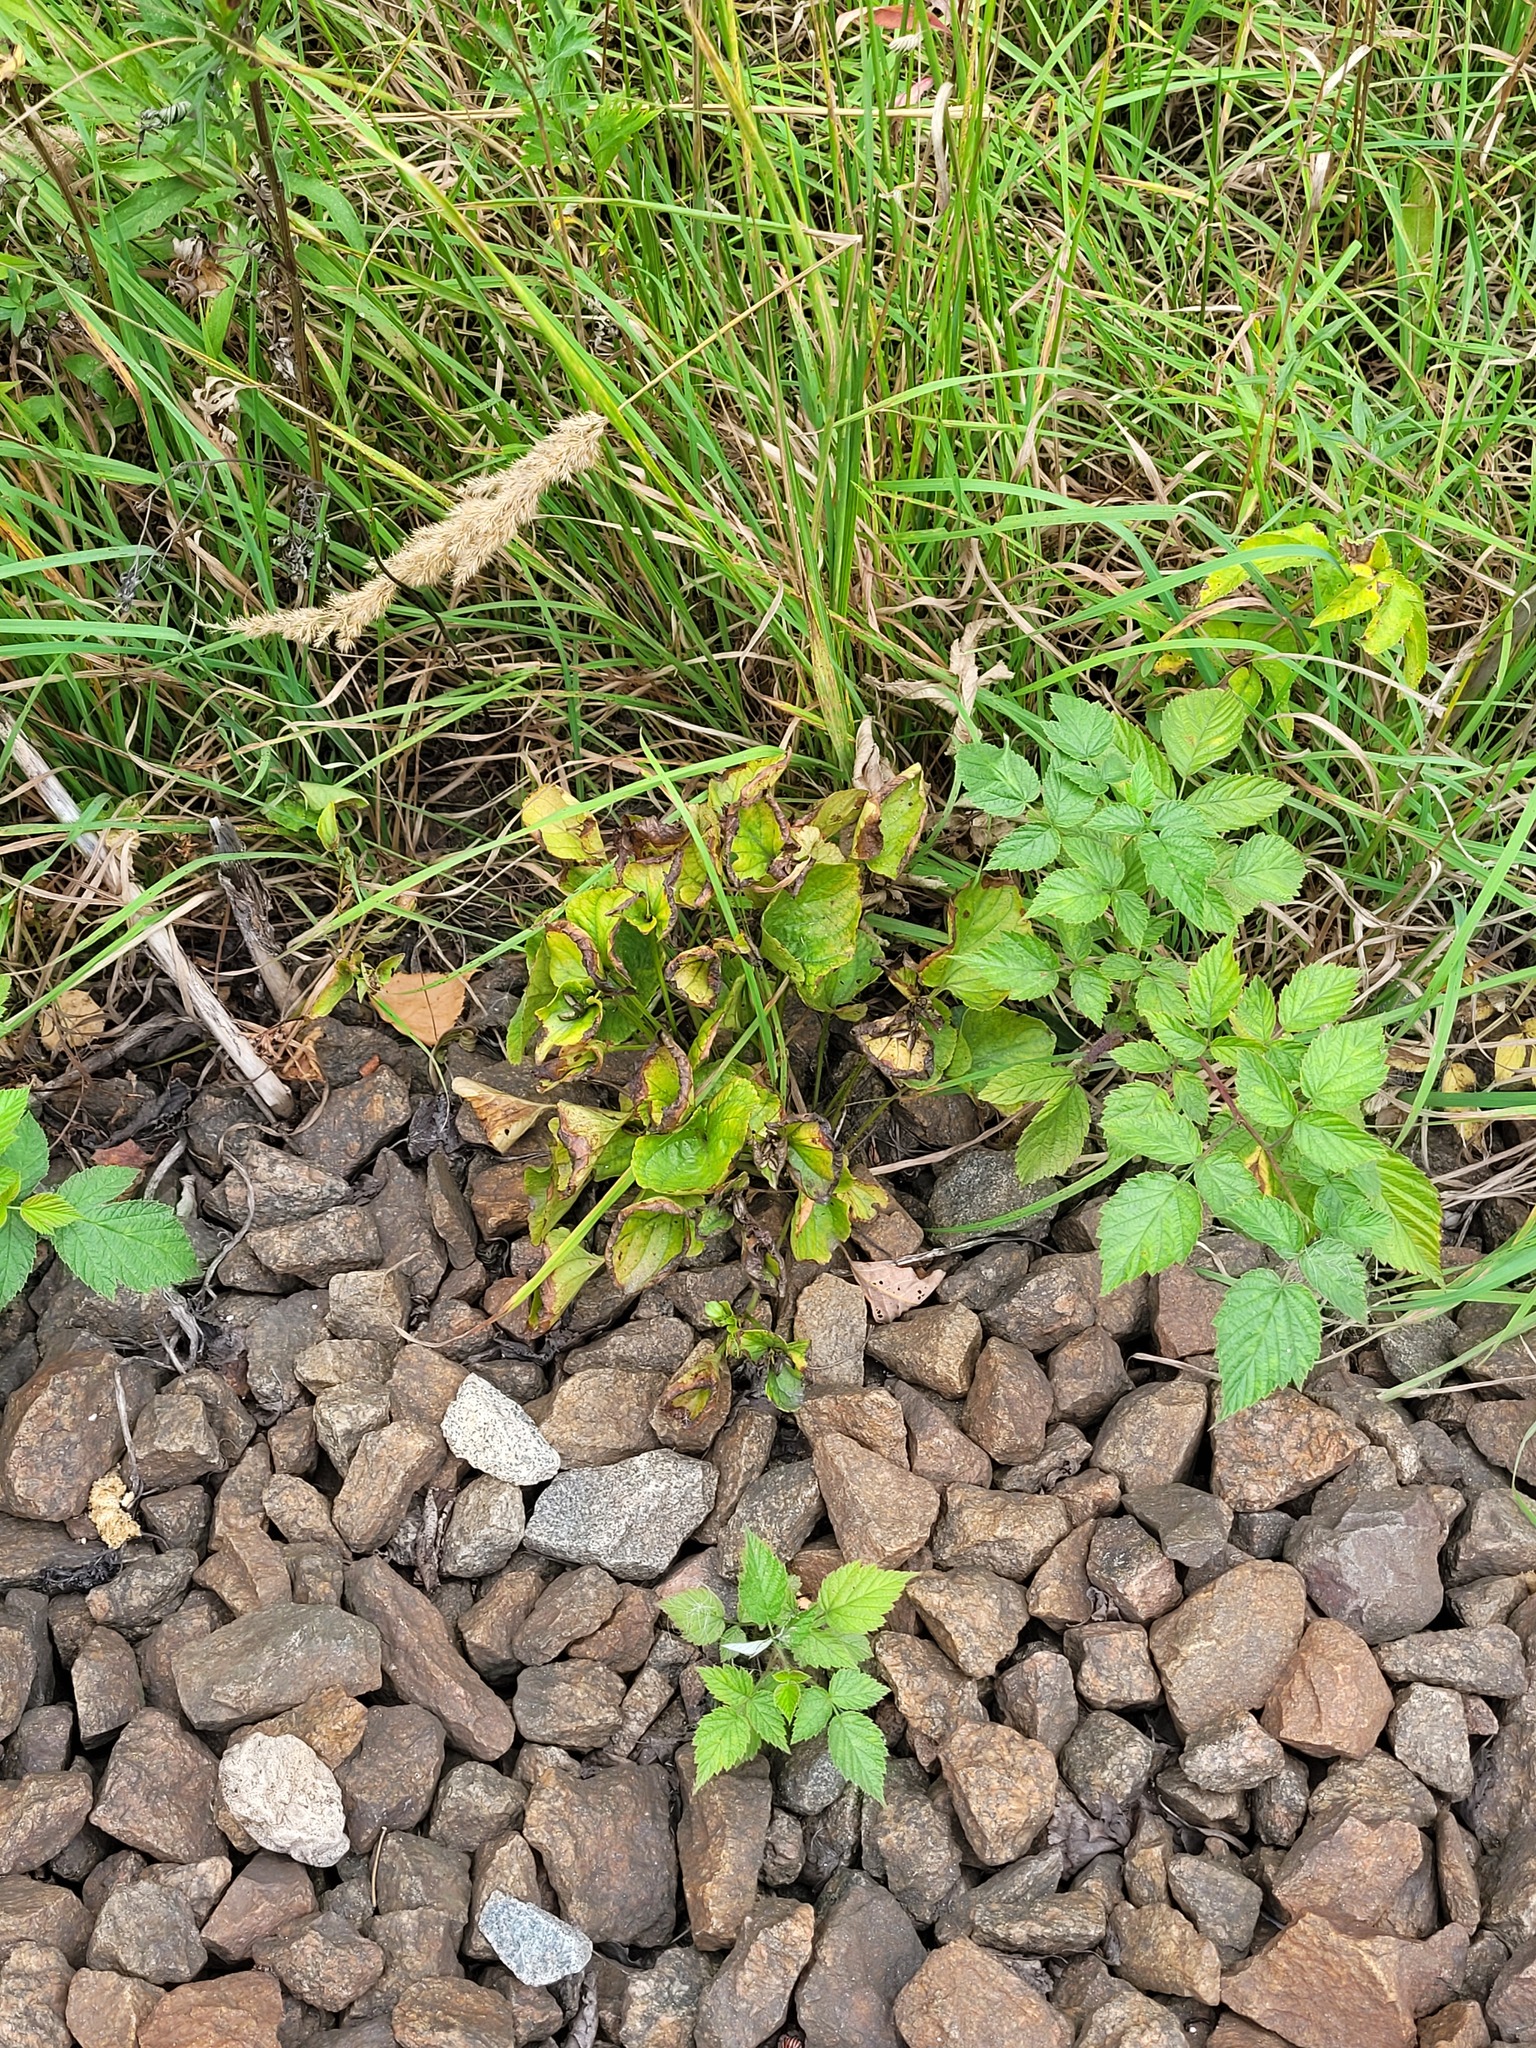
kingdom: Plantae
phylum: Tracheophyta
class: Magnoliopsida
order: Malpighiales
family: Violaceae
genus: Viola
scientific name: Viola mirabilis
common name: Wonder violet
